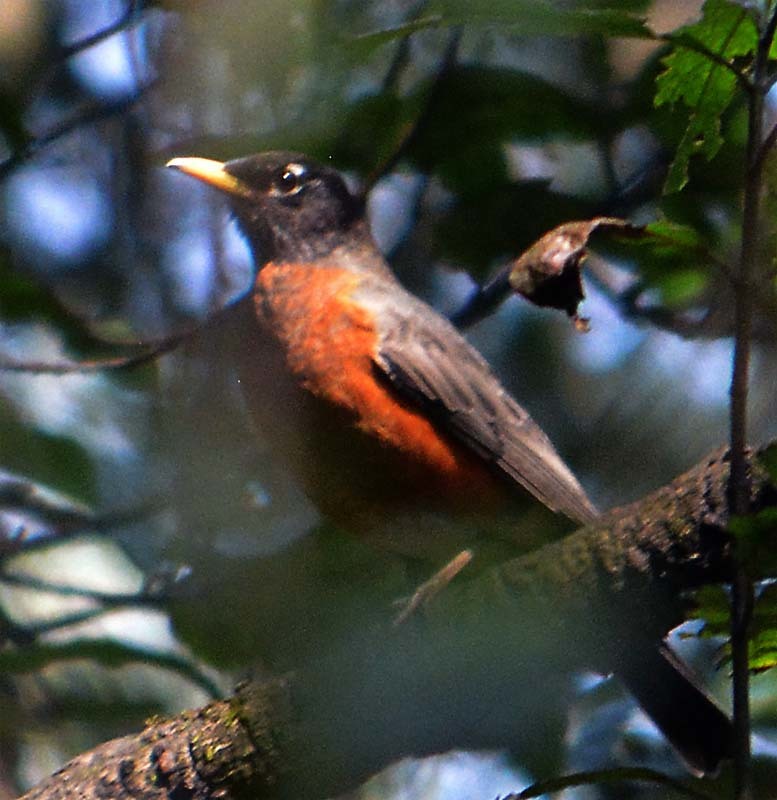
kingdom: Animalia
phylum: Chordata
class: Aves
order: Passeriformes
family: Turdidae
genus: Turdus
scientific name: Turdus migratorius
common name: American robin
